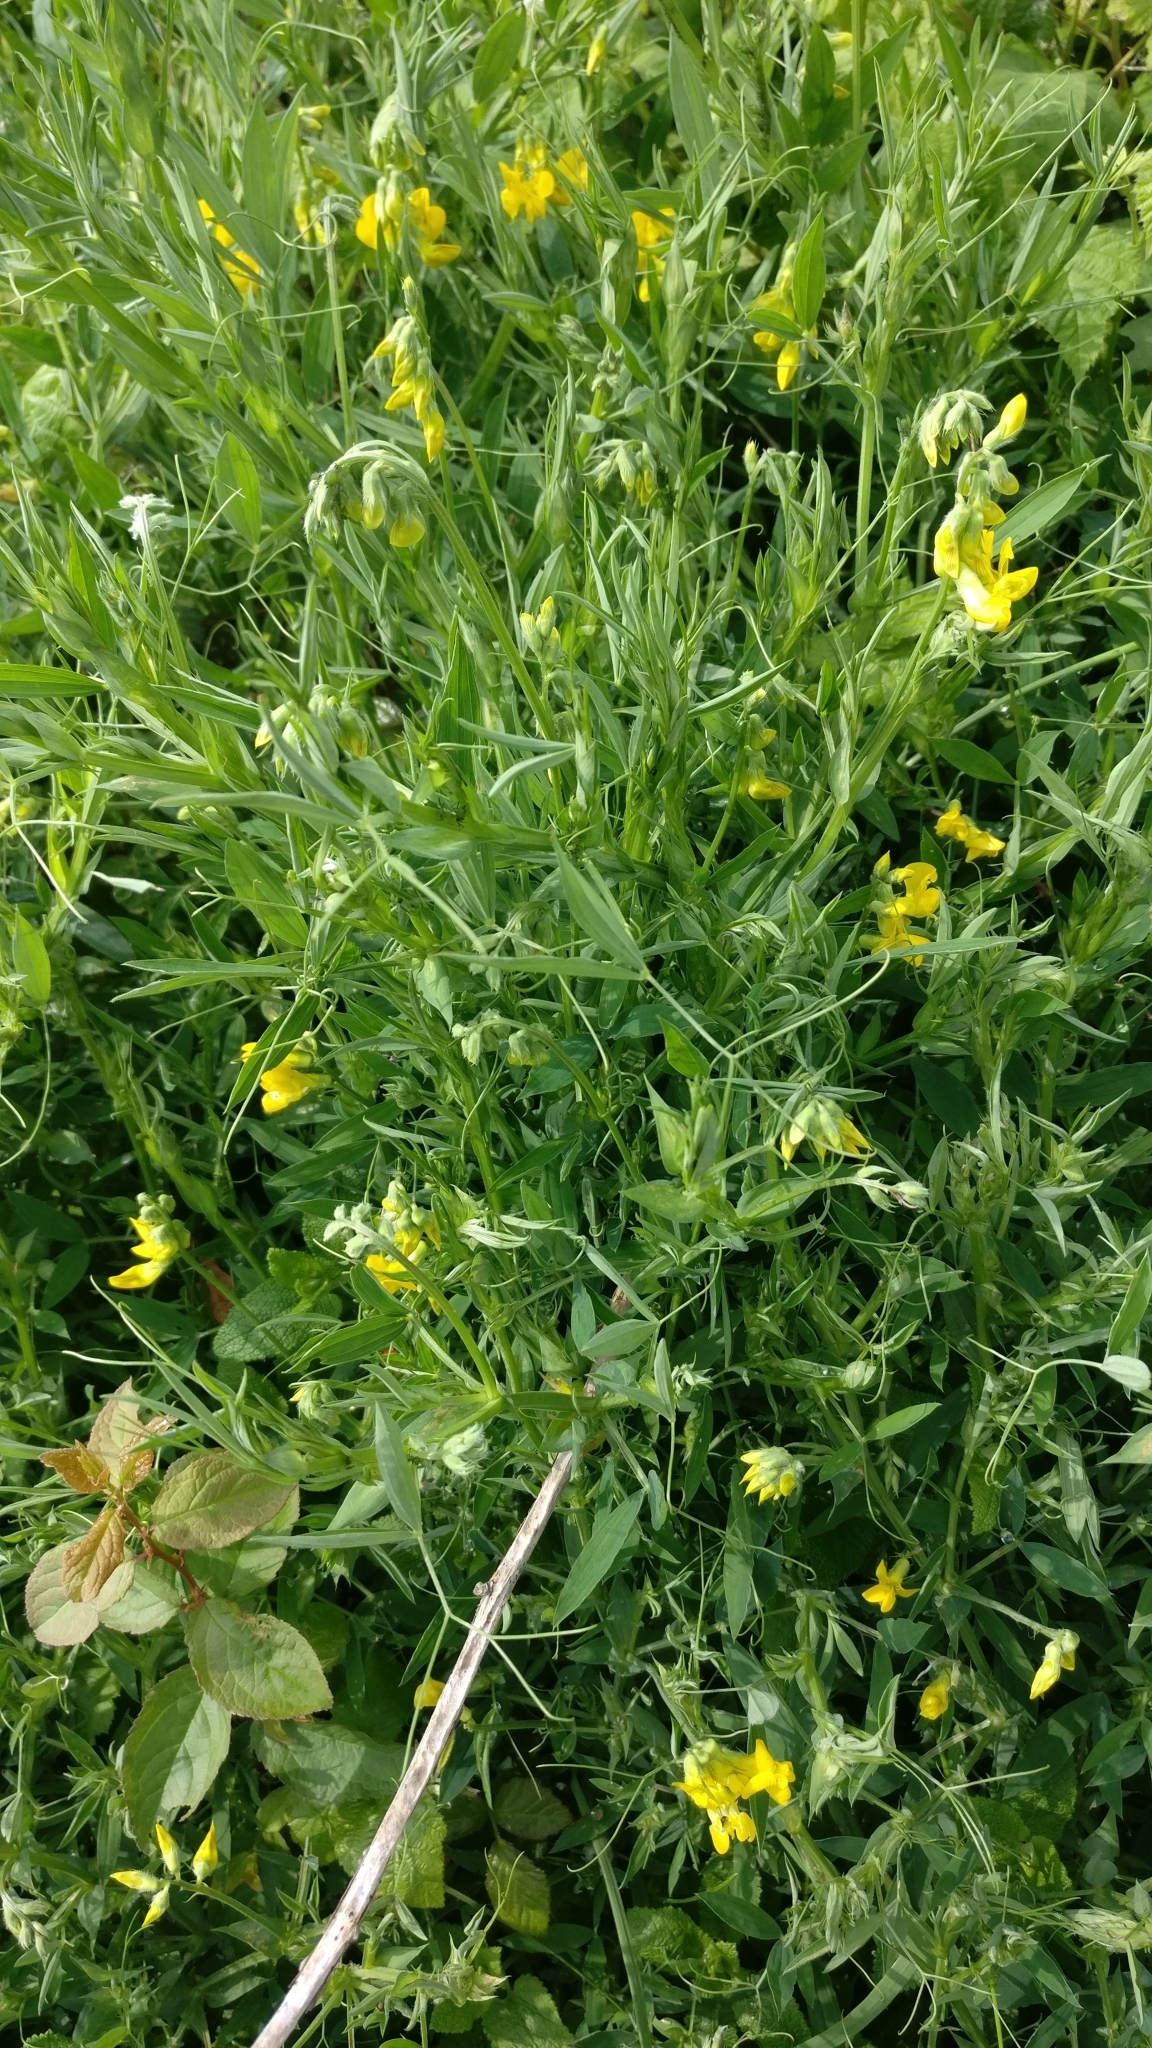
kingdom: Plantae
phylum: Tracheophyta
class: Magnoliopsida
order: Fabales
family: Fabaceae
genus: Lathyrus
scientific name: Lathyrus pratensis
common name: Meadow vetchling
